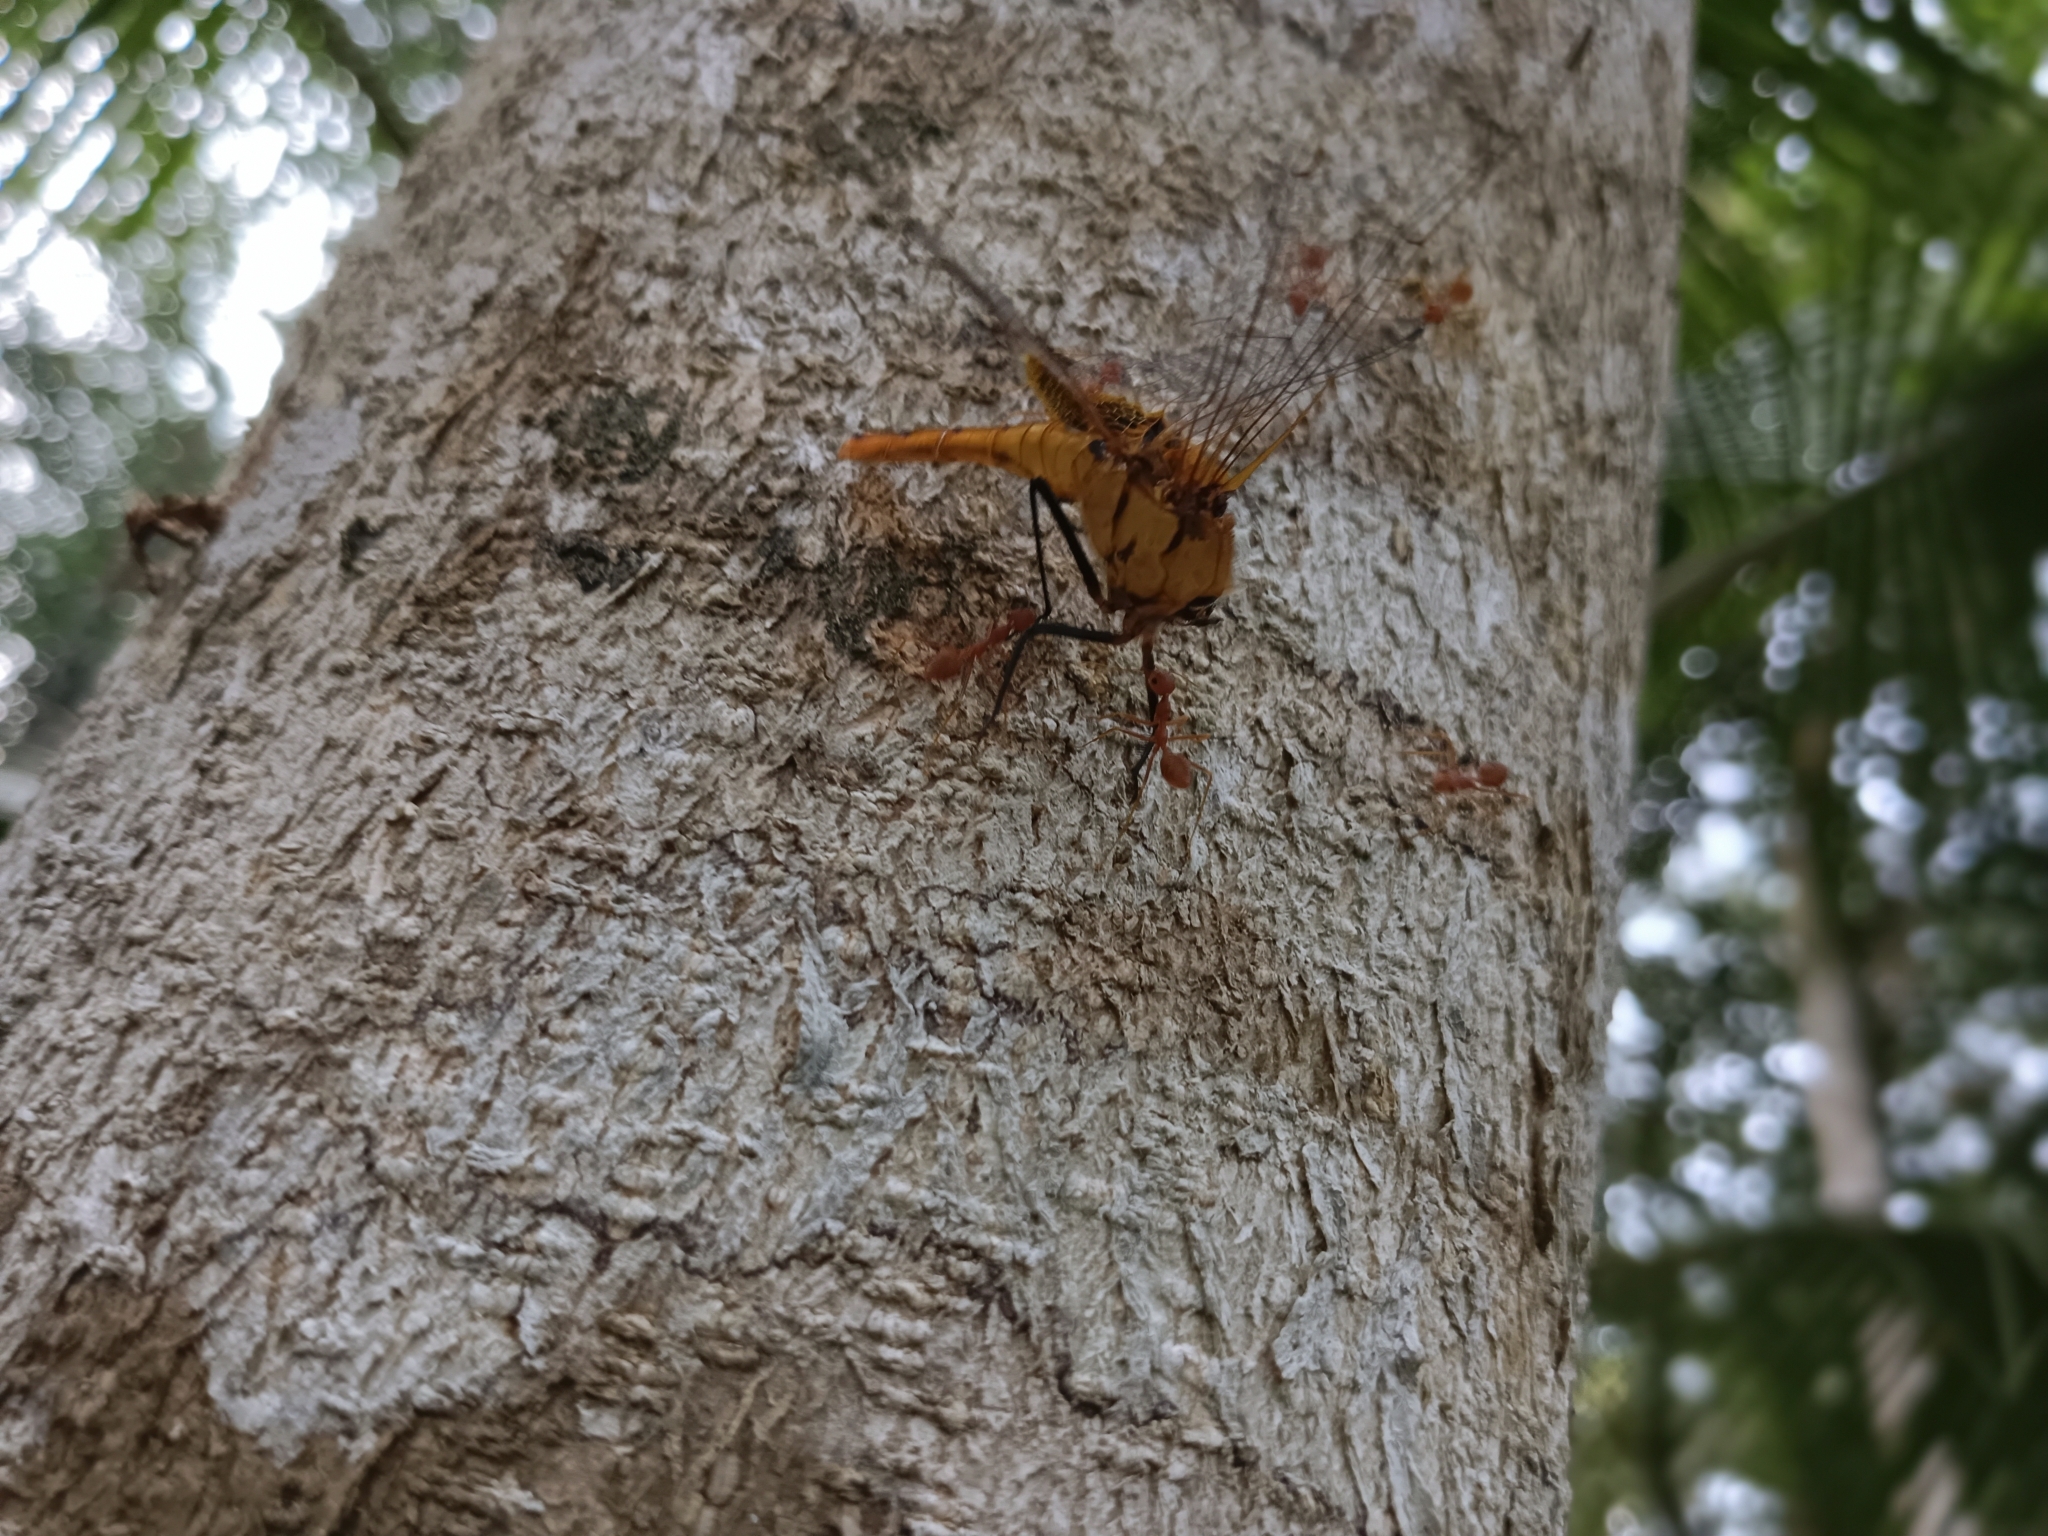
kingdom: Animalia
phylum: Arthropoda
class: Insecta
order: Odonata
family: Libellulidae
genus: Urothemis
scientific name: Urothemis signata
